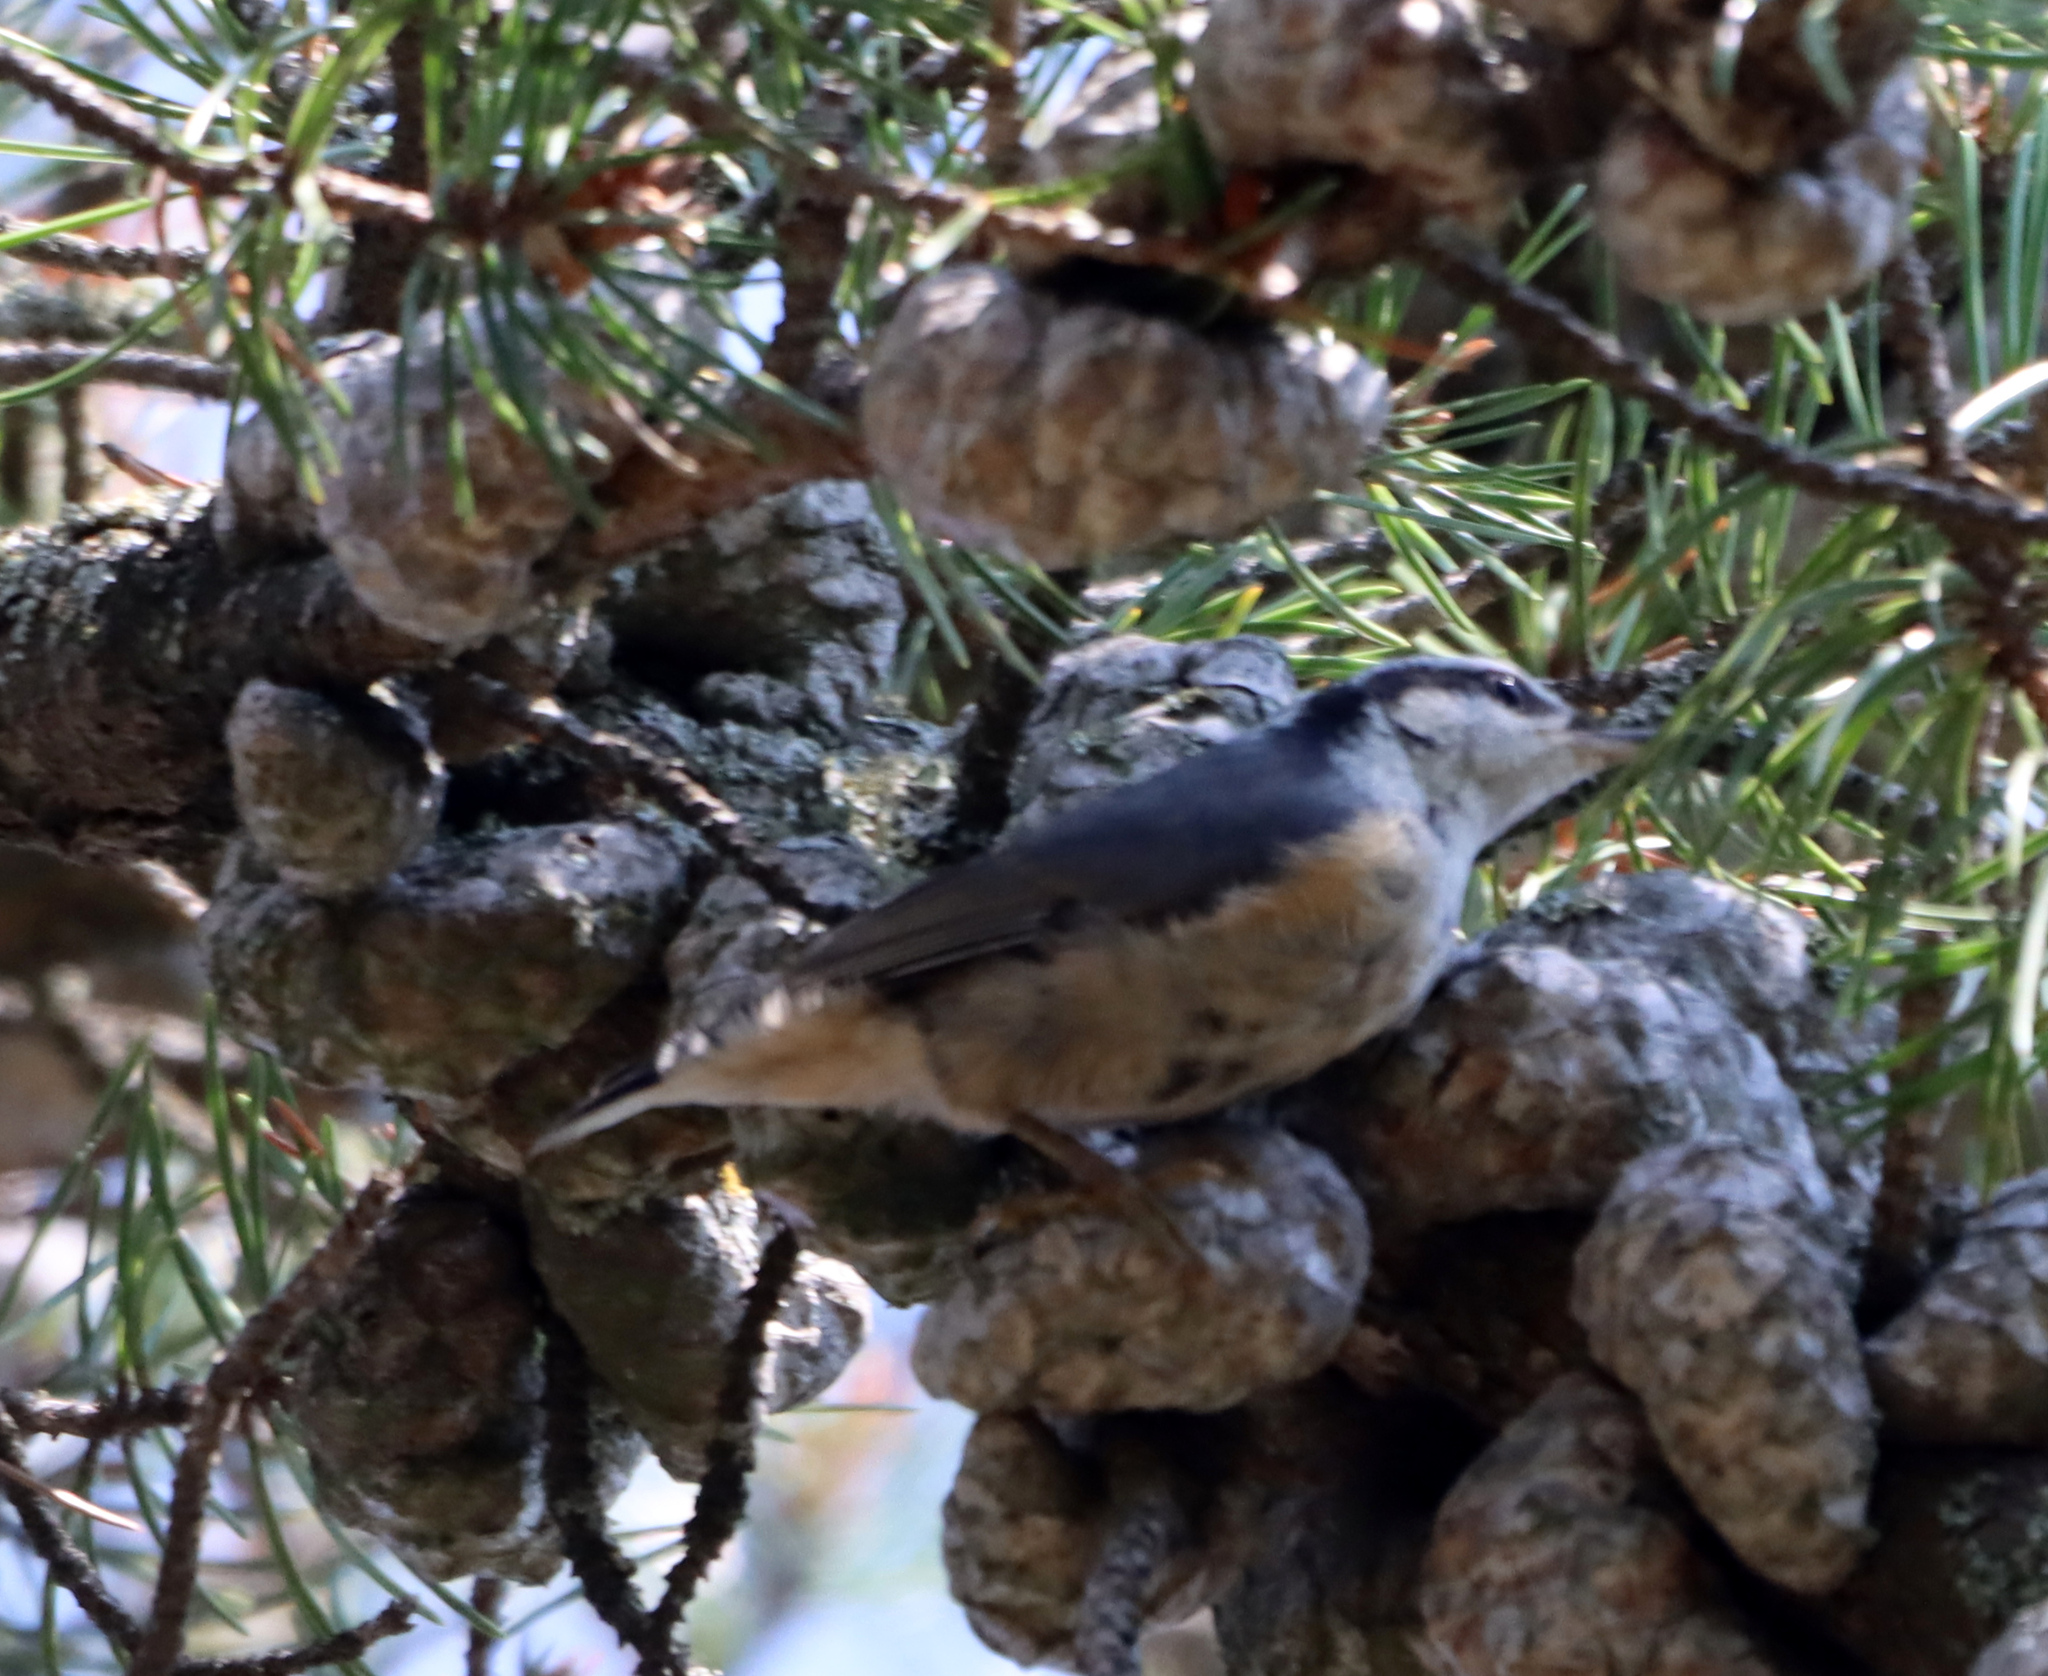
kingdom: Animalia
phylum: Chordata
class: Aves
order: Passeriformes
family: Sittidae
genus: Sitta
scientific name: Sitta canadensis
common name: Red-breasted nuthatch
